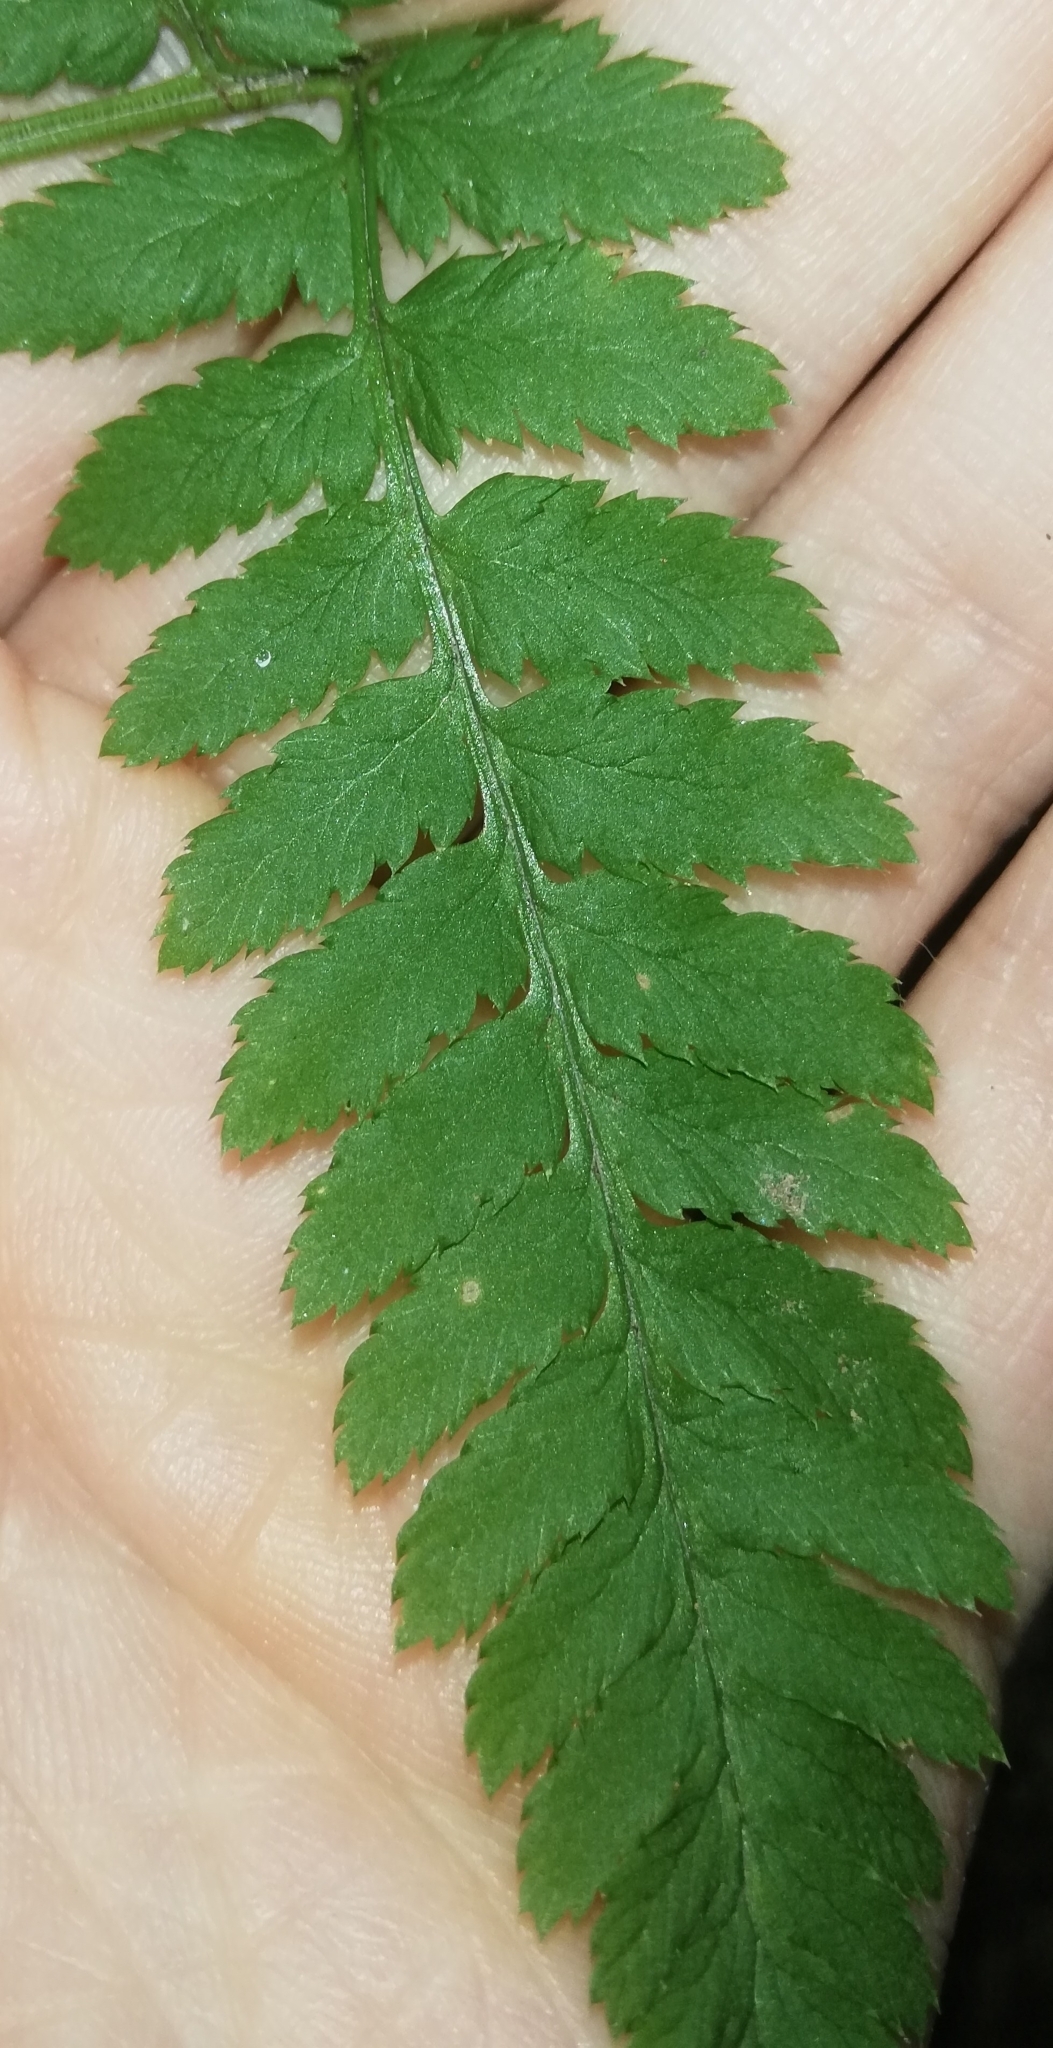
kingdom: Plantae
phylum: Tracheophyta
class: Polypodiopsida
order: Polypodiales
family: Dryopteridaceae
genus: Dryopteris
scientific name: Dryopteris dilatata
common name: Broad buckler-fern
